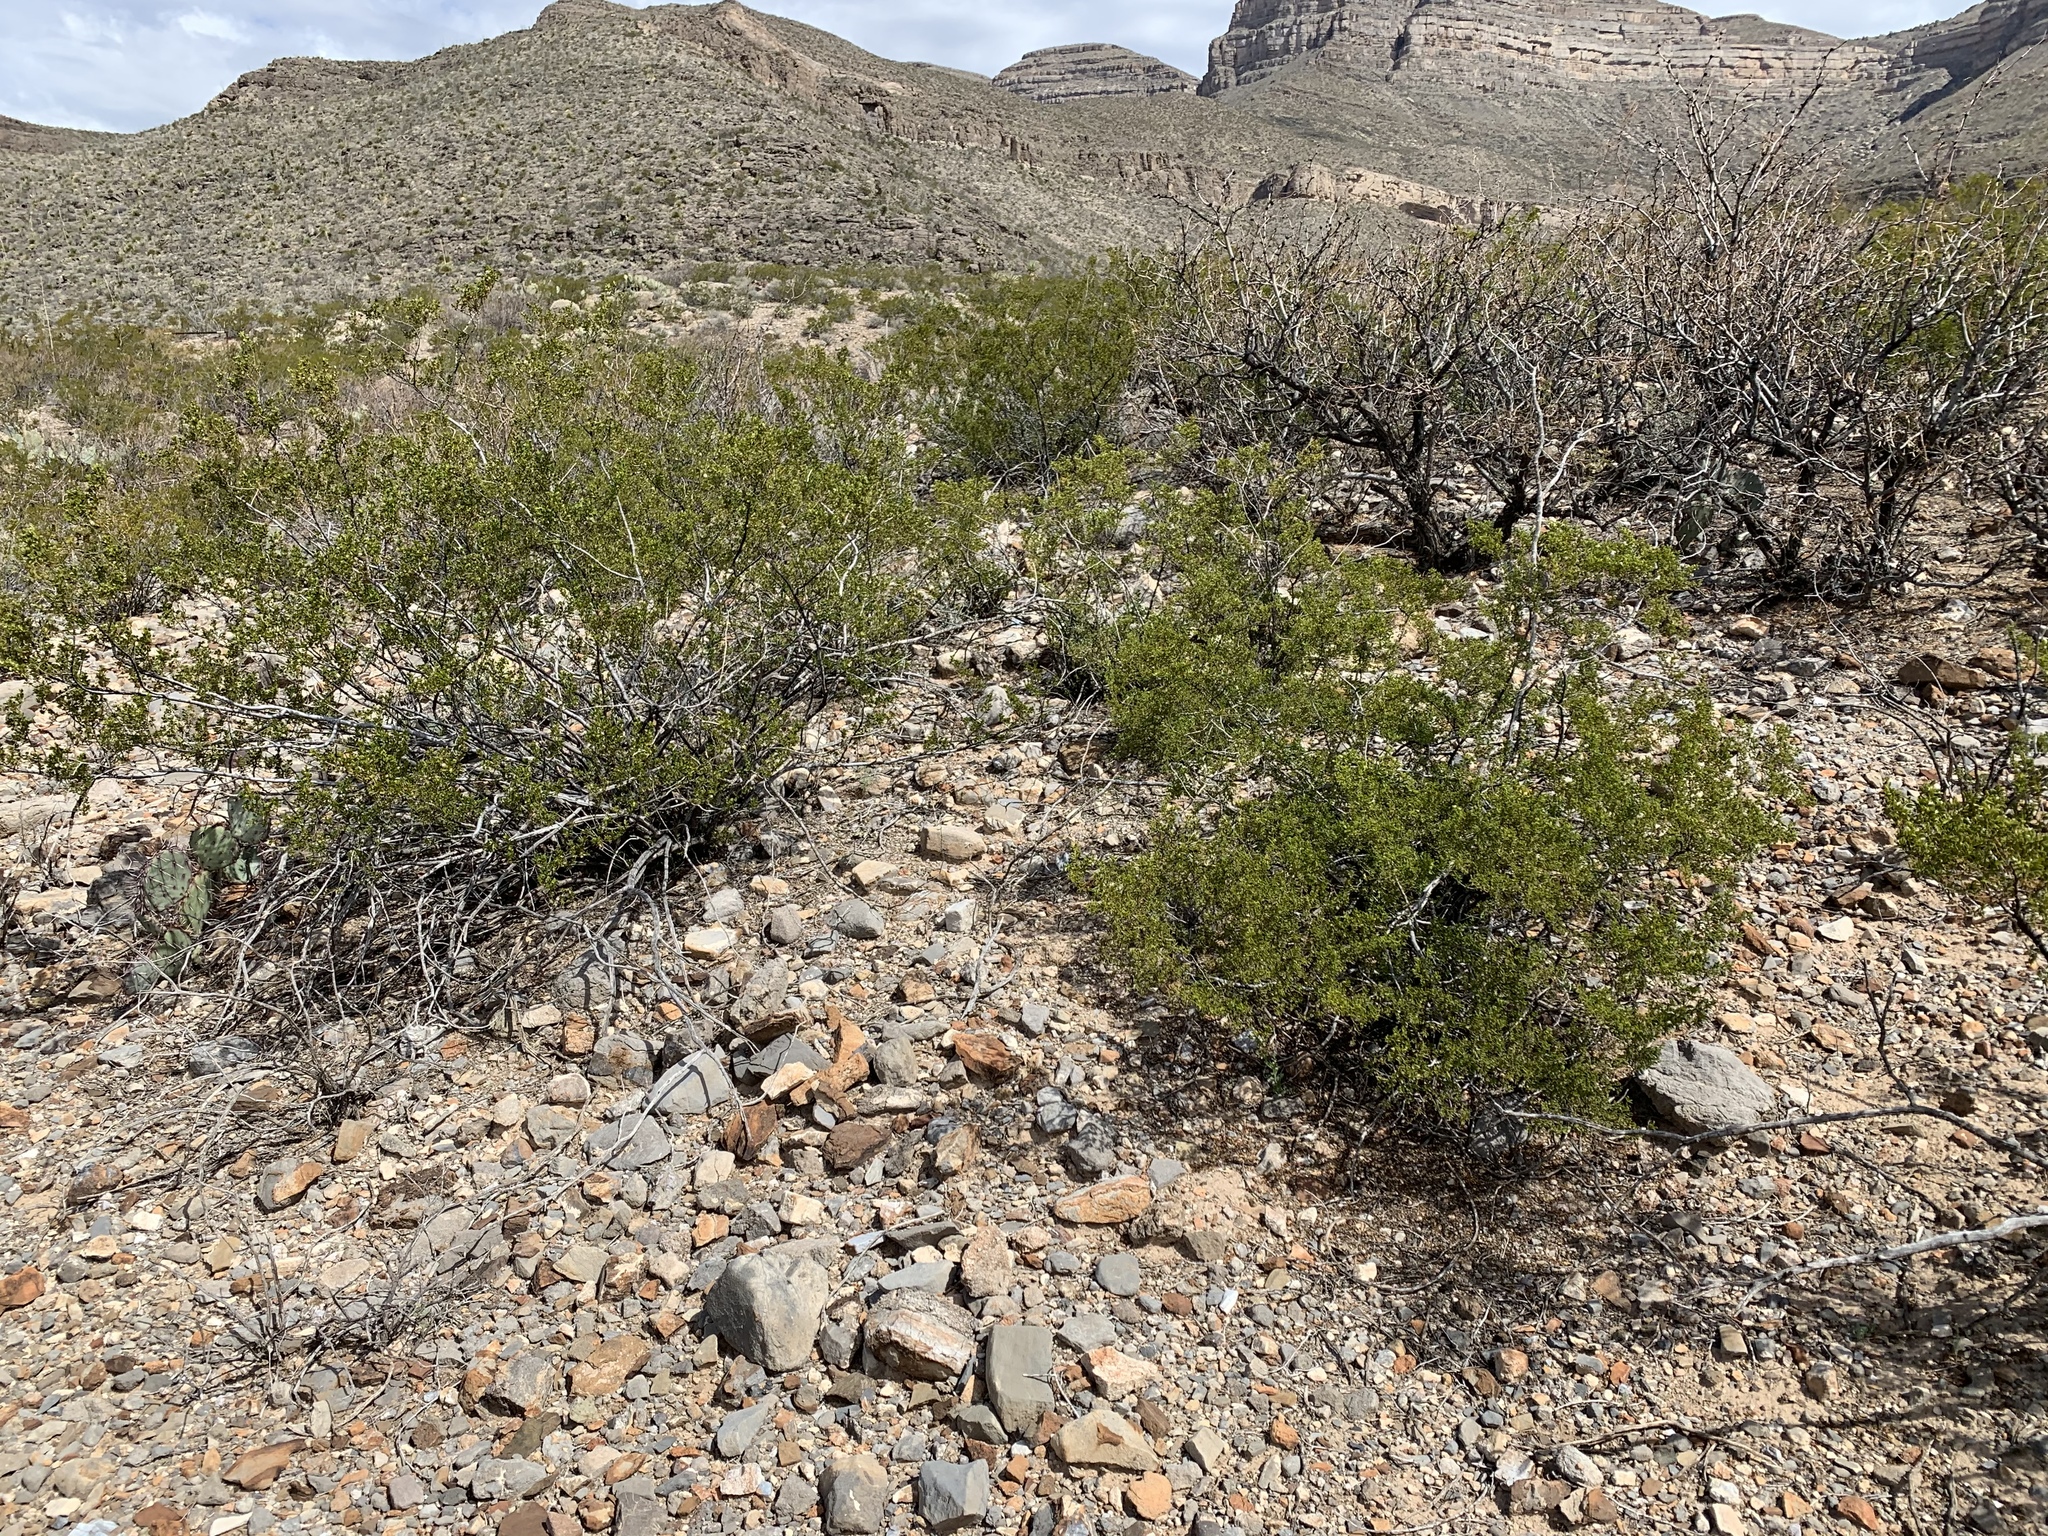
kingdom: Plantae
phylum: Tracheophyta
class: Magnoliopsida
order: Zygophyllales
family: Zygophyllaceae
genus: Larrea
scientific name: Larrea tridentata
